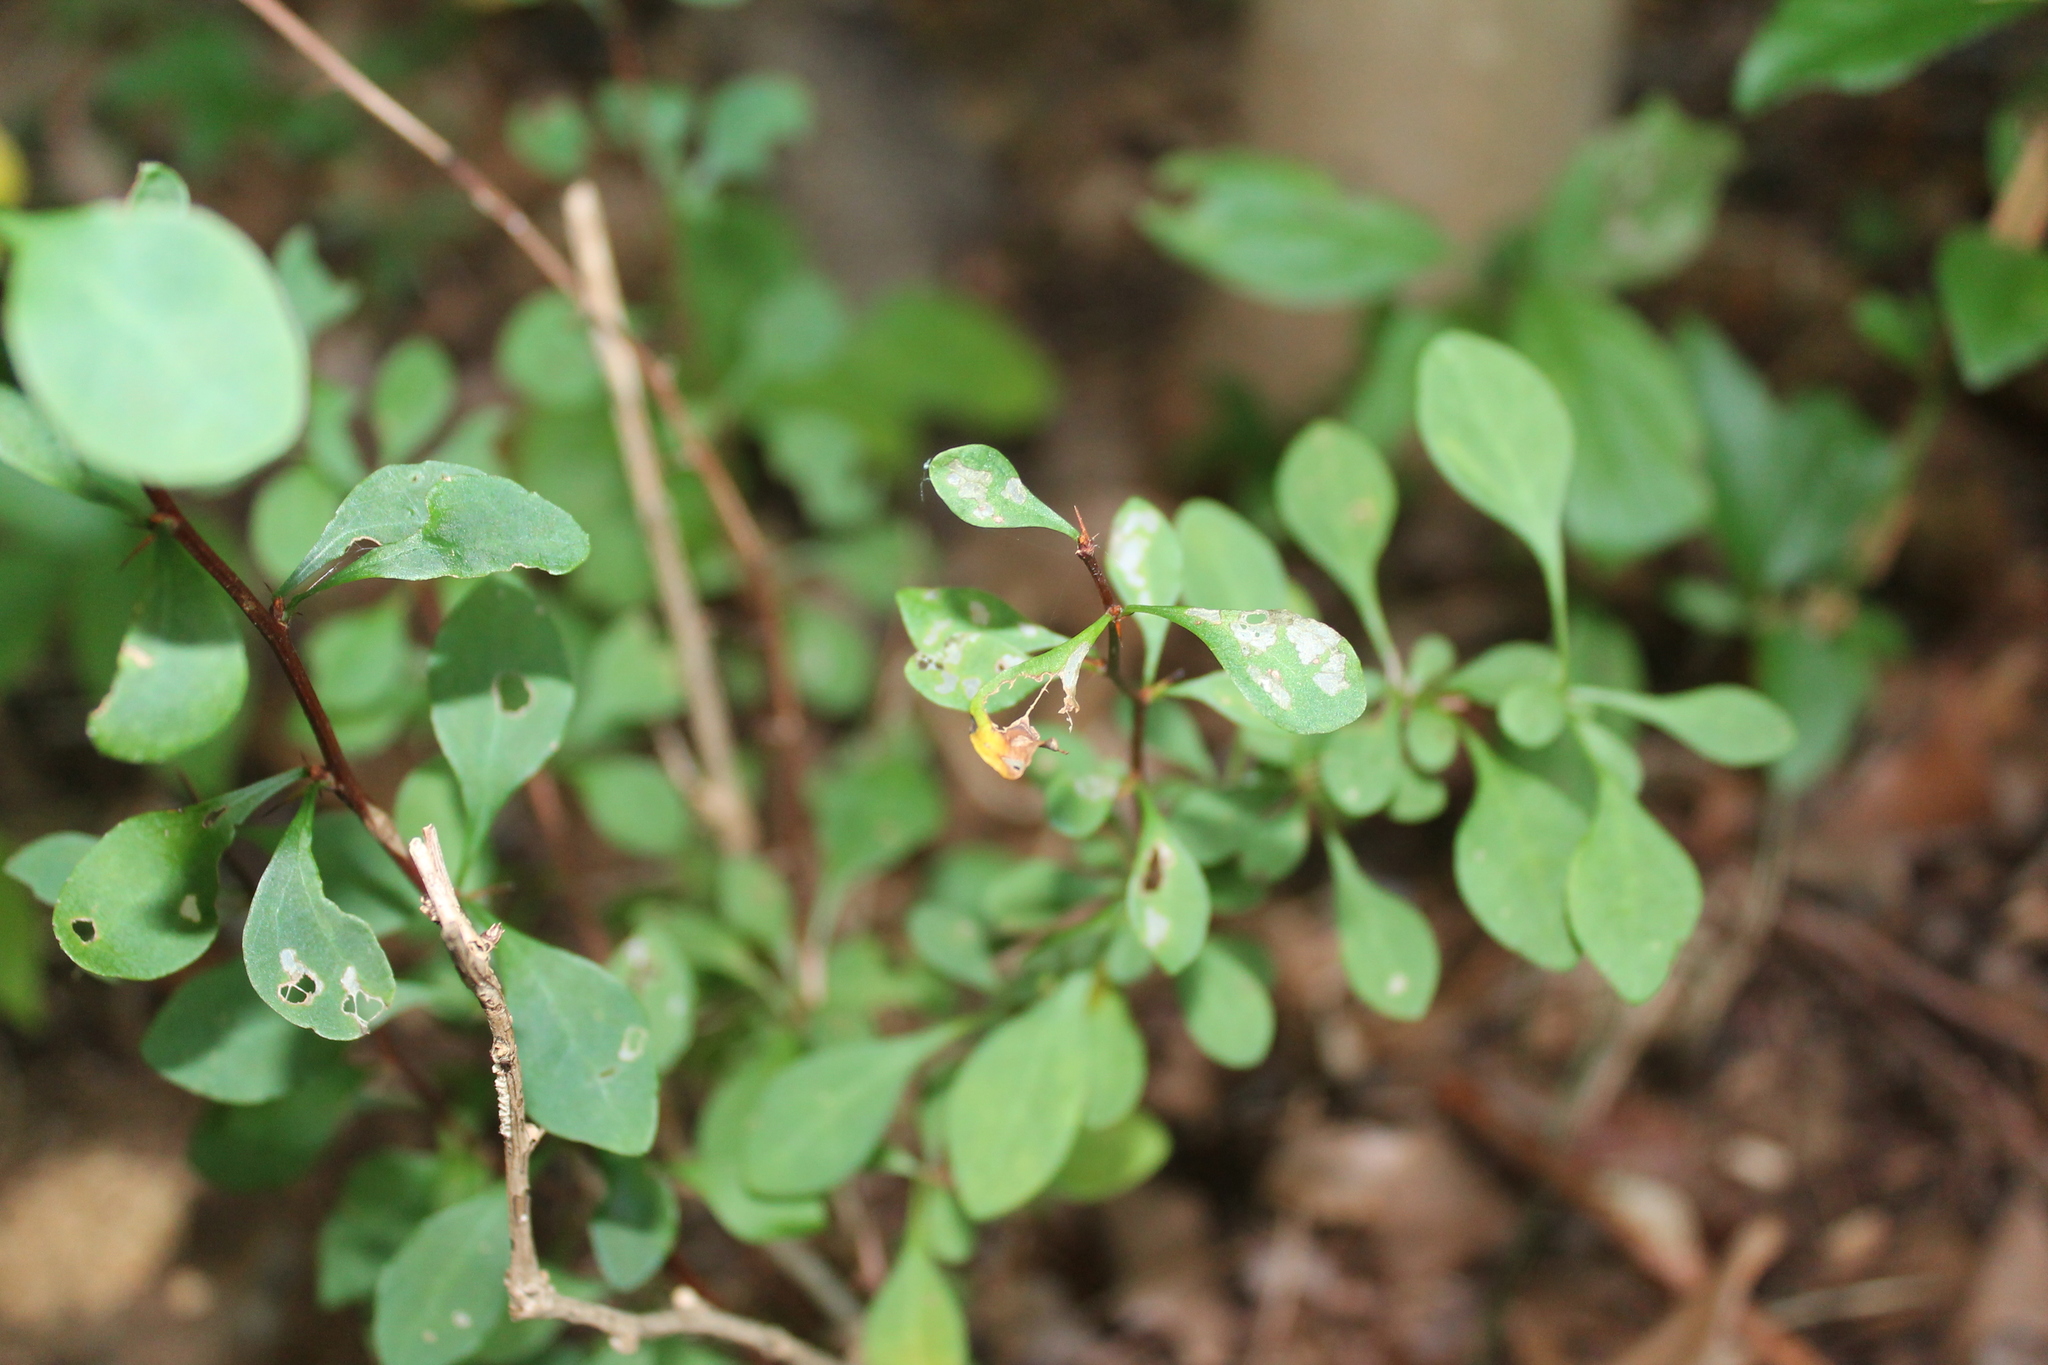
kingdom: Plantae
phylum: Tracheophyta
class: Magnoliopsida
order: Ranunculales
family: Berberidaceae
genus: Berberis
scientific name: Berberis thunbergii
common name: Japanese barberry
